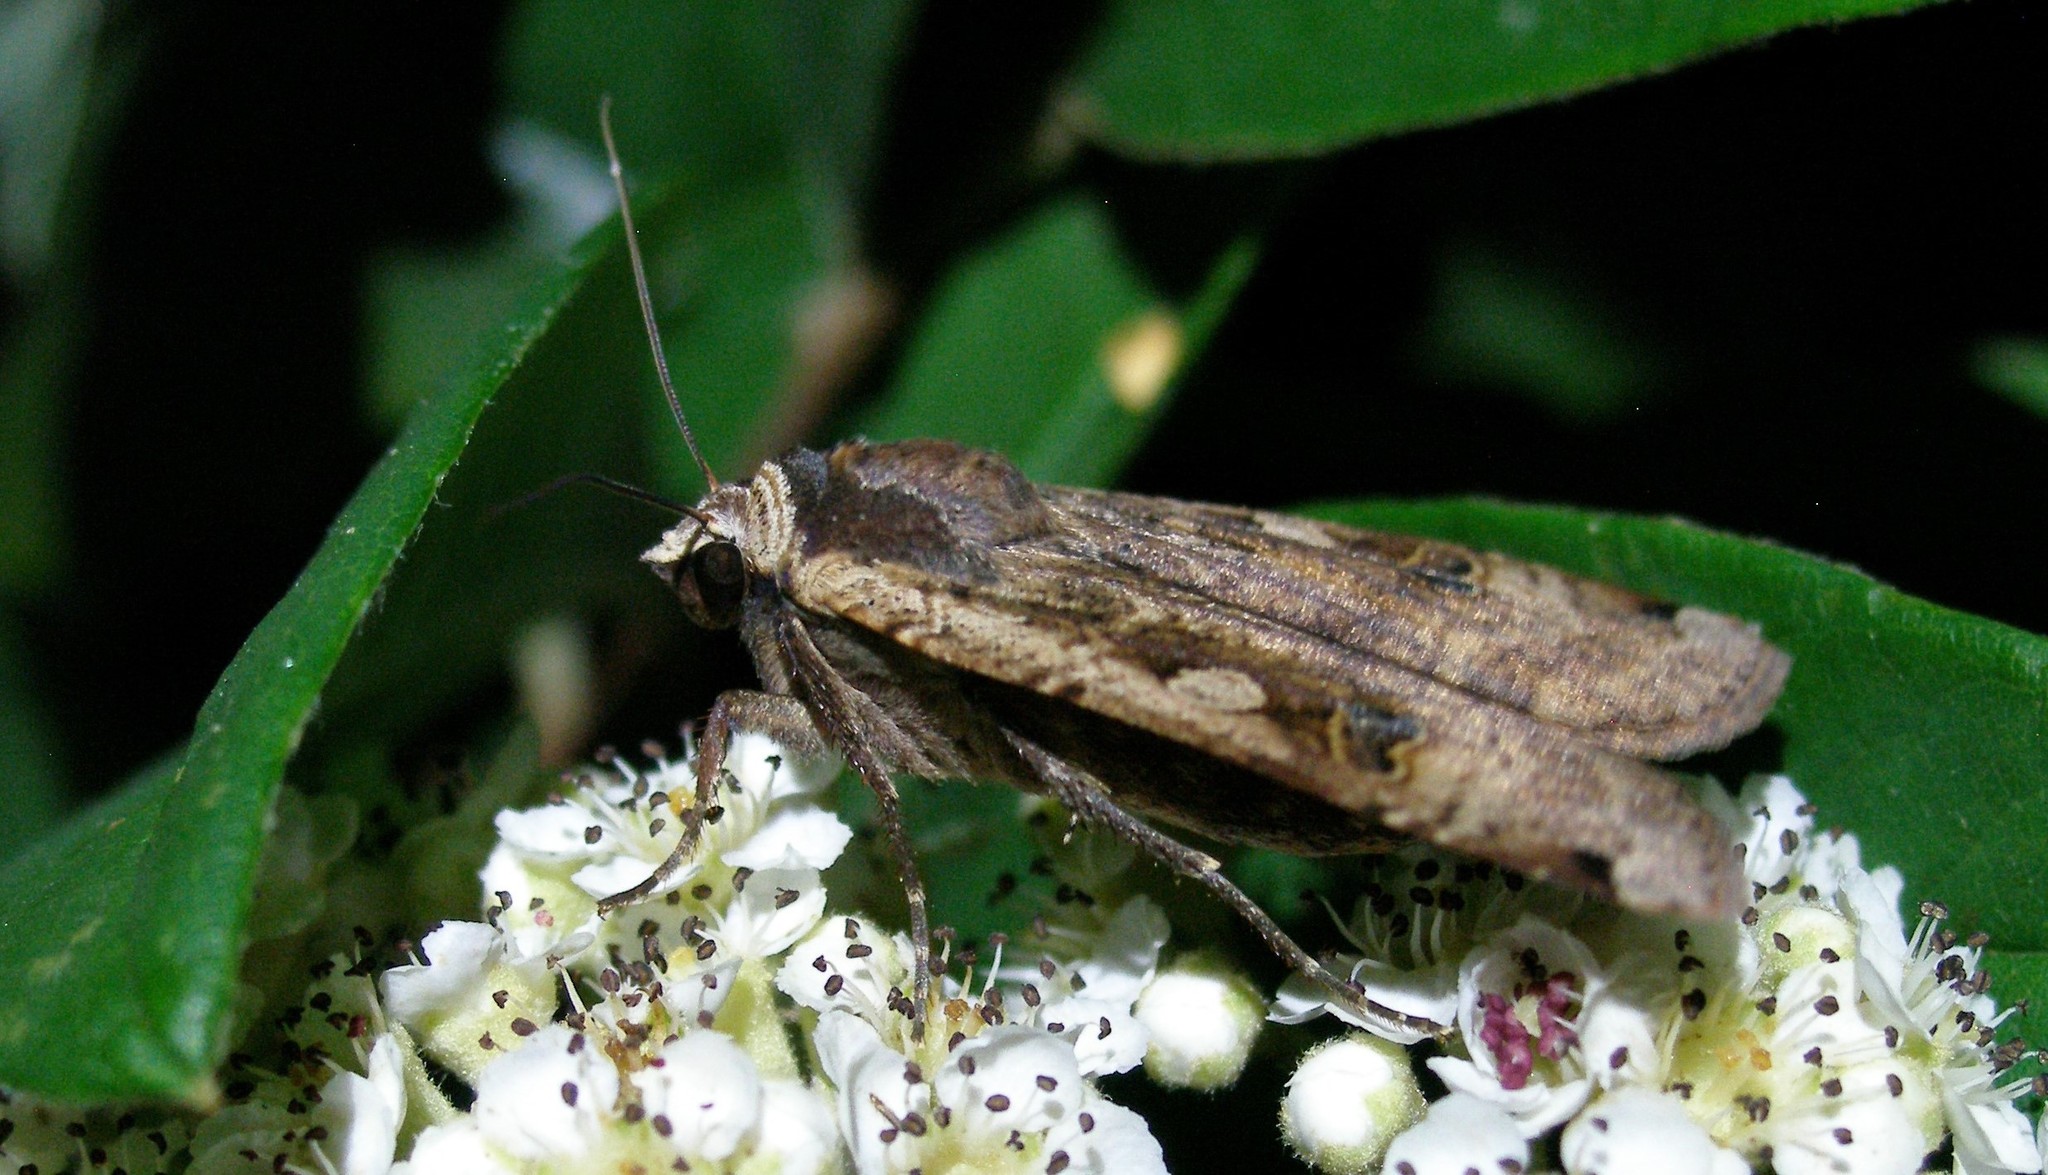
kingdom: Animalia
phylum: Arthropoda
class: Insecta
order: Lepidoptera
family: Noctuidae
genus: Noctua
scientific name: Noctua pronuba
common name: Large yellow underwing
